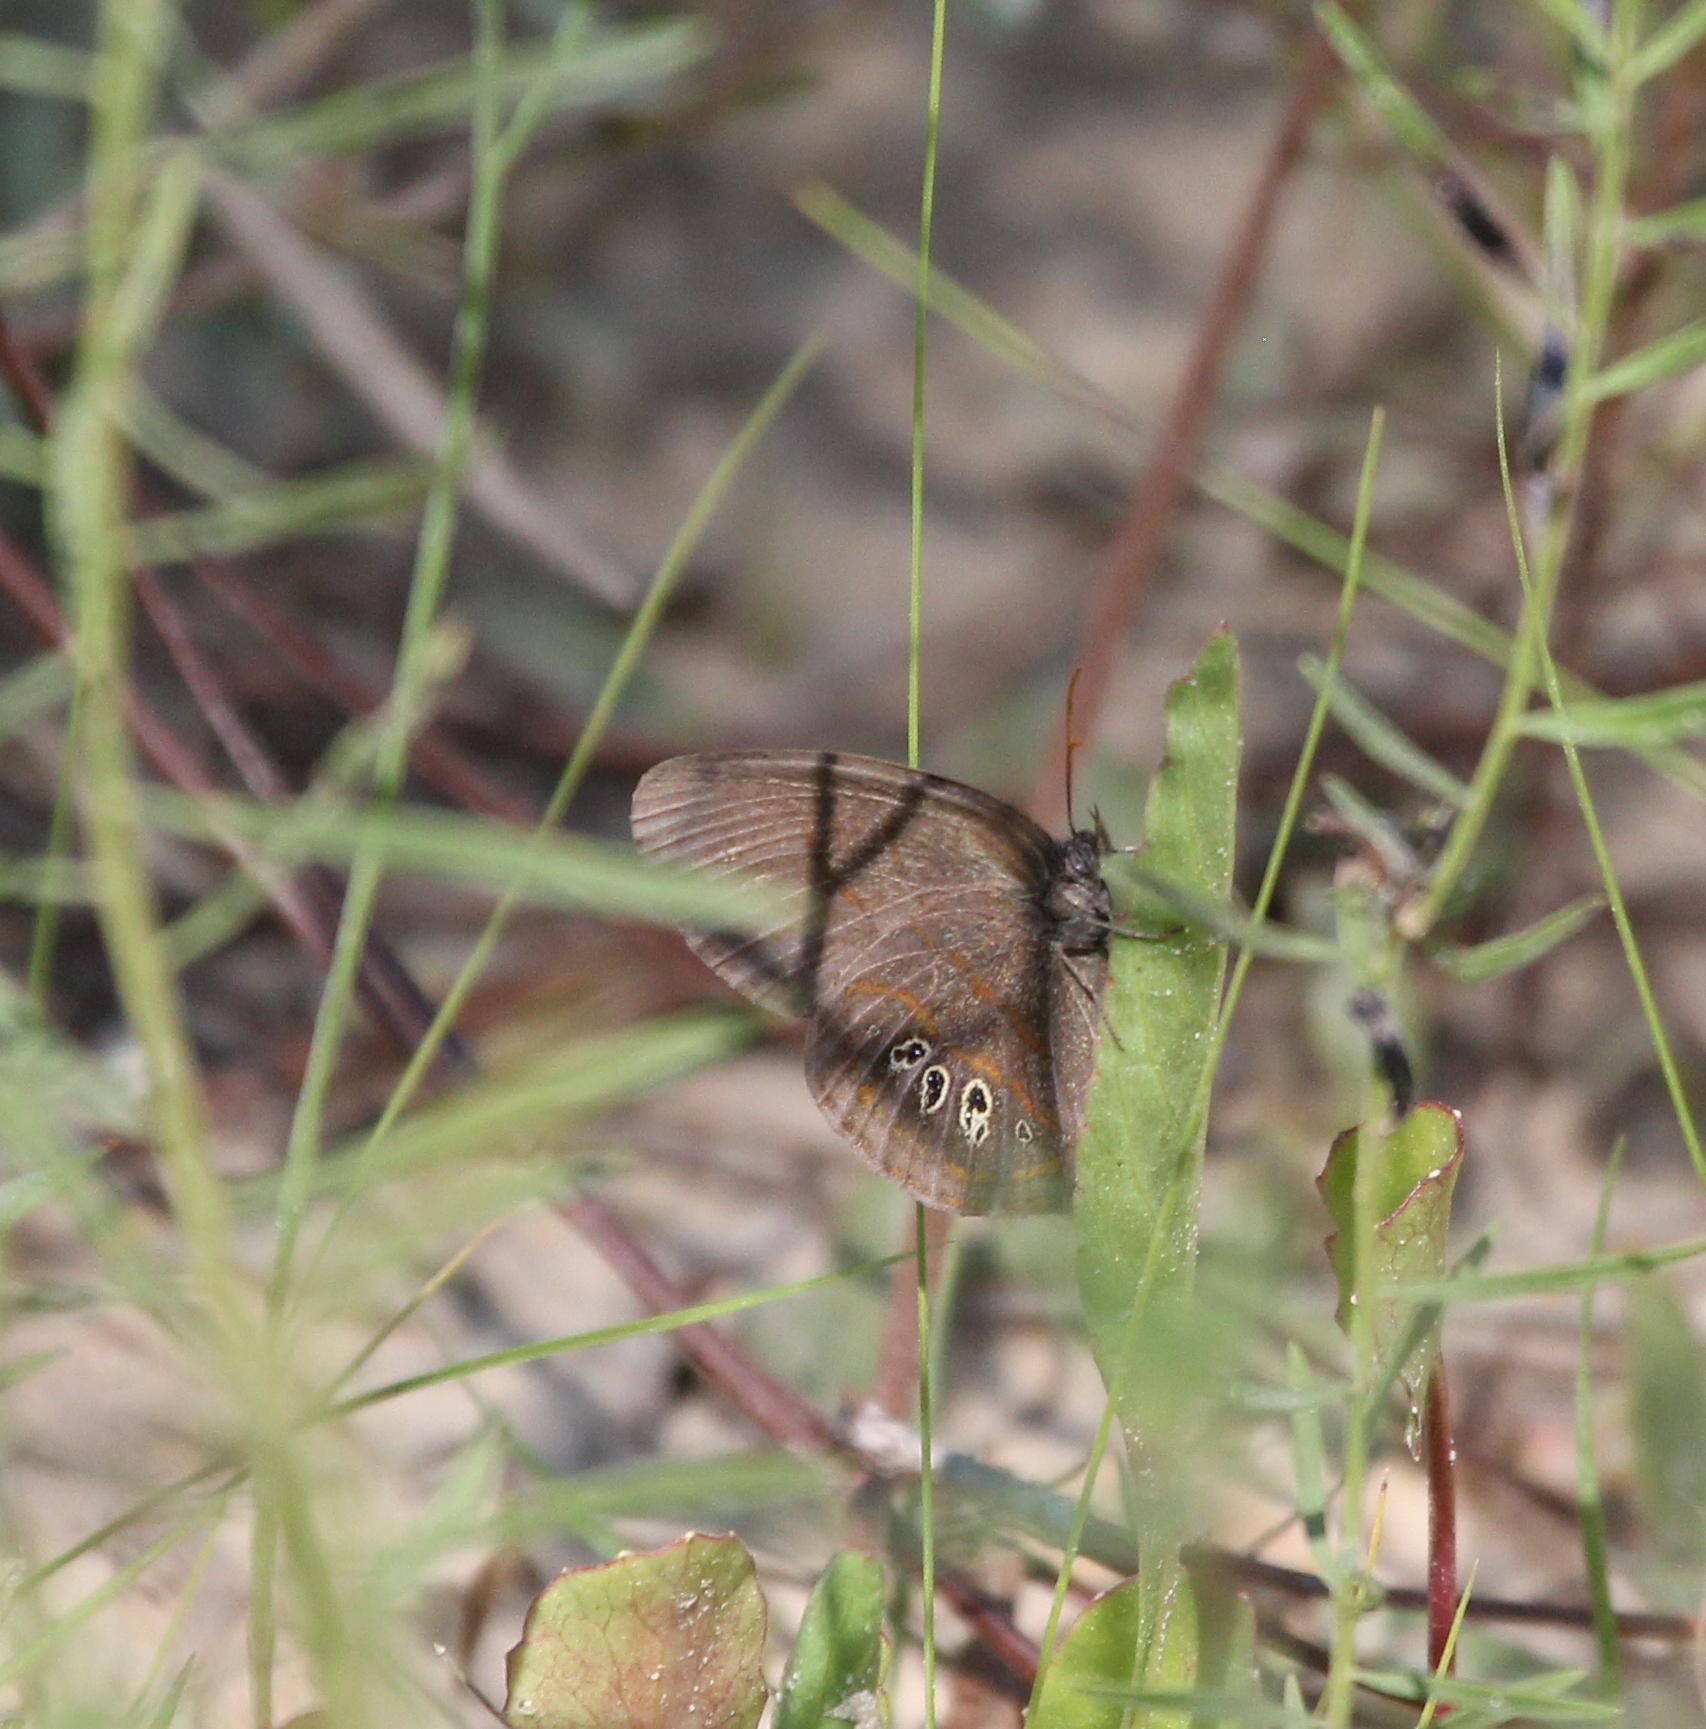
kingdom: Animalia
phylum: Arthropoda
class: Insecta
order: Lepidoptera
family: Nymphalidae
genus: Euptychia
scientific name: Euptychia phocion
